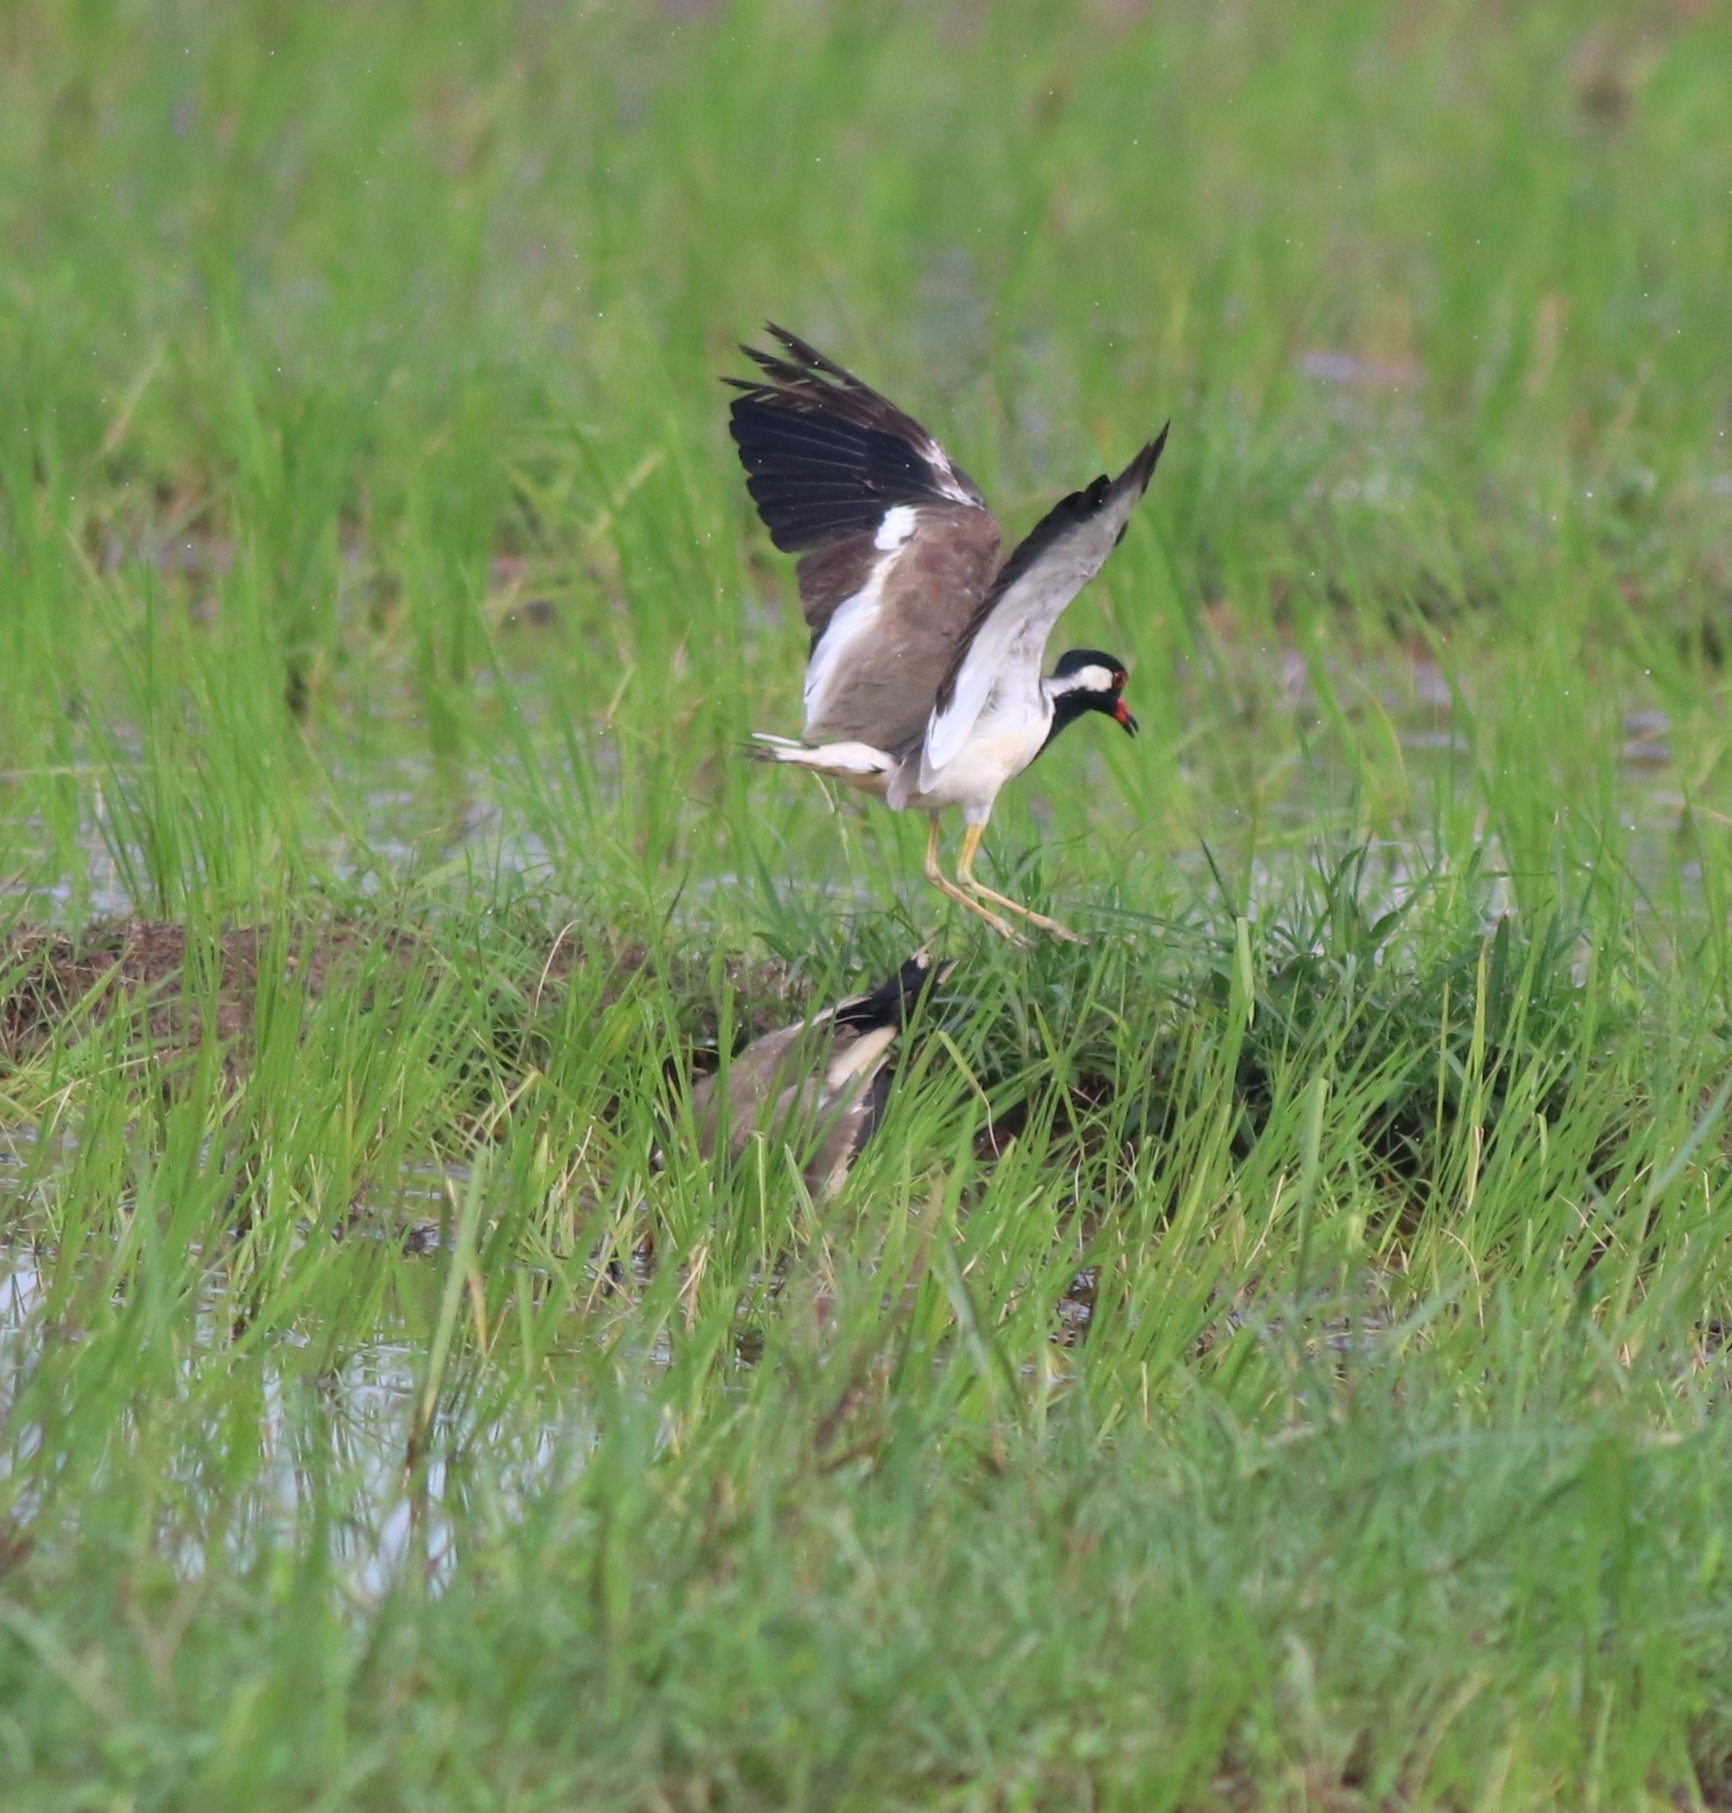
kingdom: Animalia
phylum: Chordata
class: Aves
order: Charadriiformes
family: Charadriidae
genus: Vanellus
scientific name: Vanellus indicus
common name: Red-wattled lapwing
